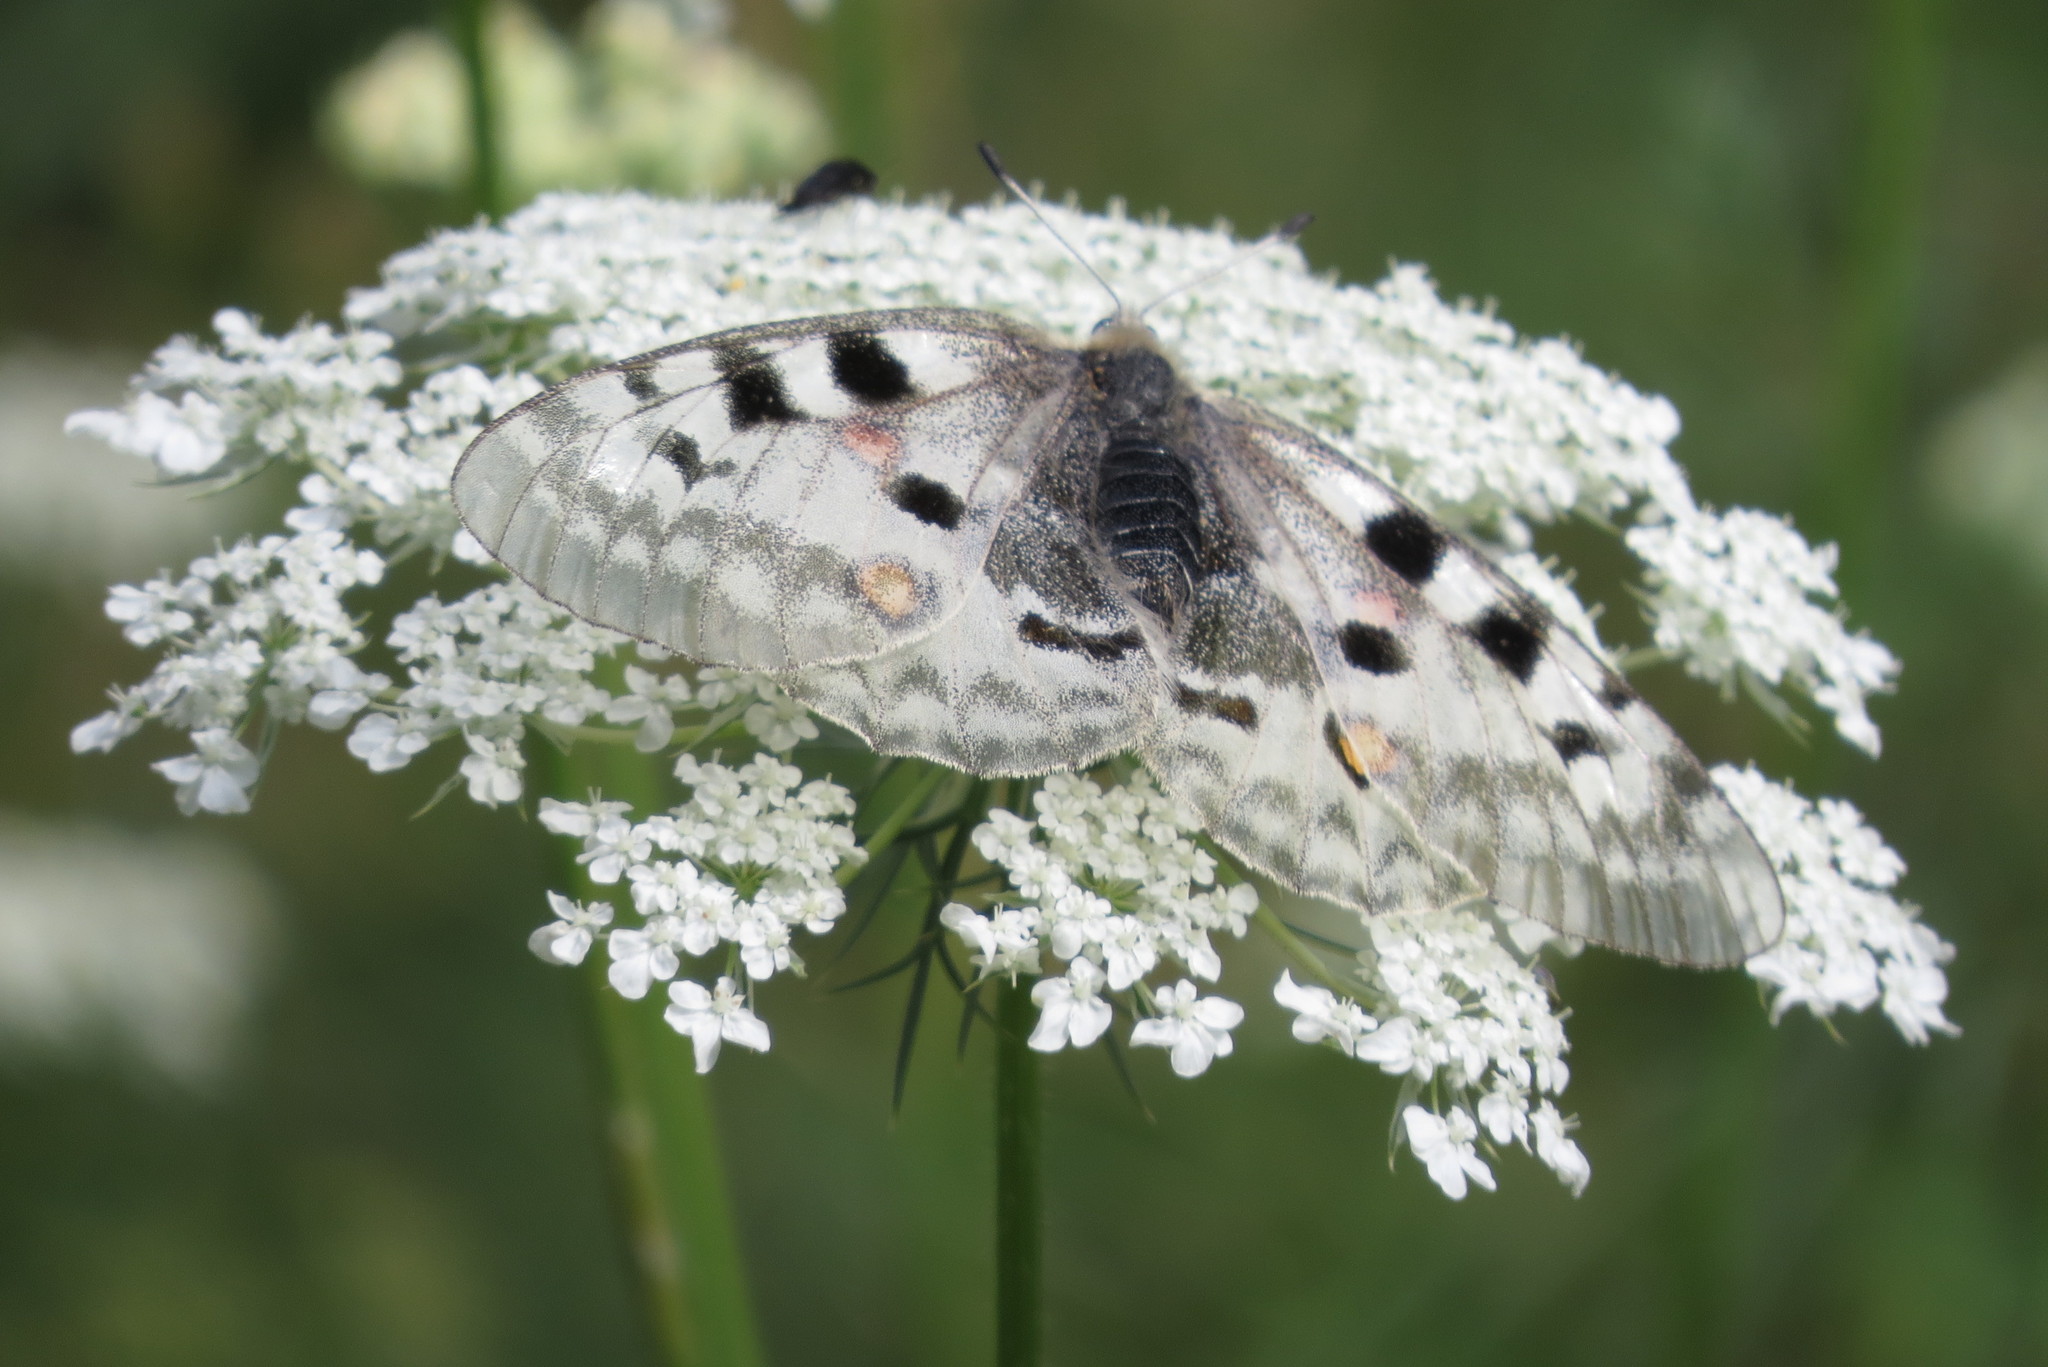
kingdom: Animalia
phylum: Arthropoda
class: Insecta
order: Lepidoptera
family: Papilionidae
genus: Parnassius
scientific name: Parnassius apollo
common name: Apollo
